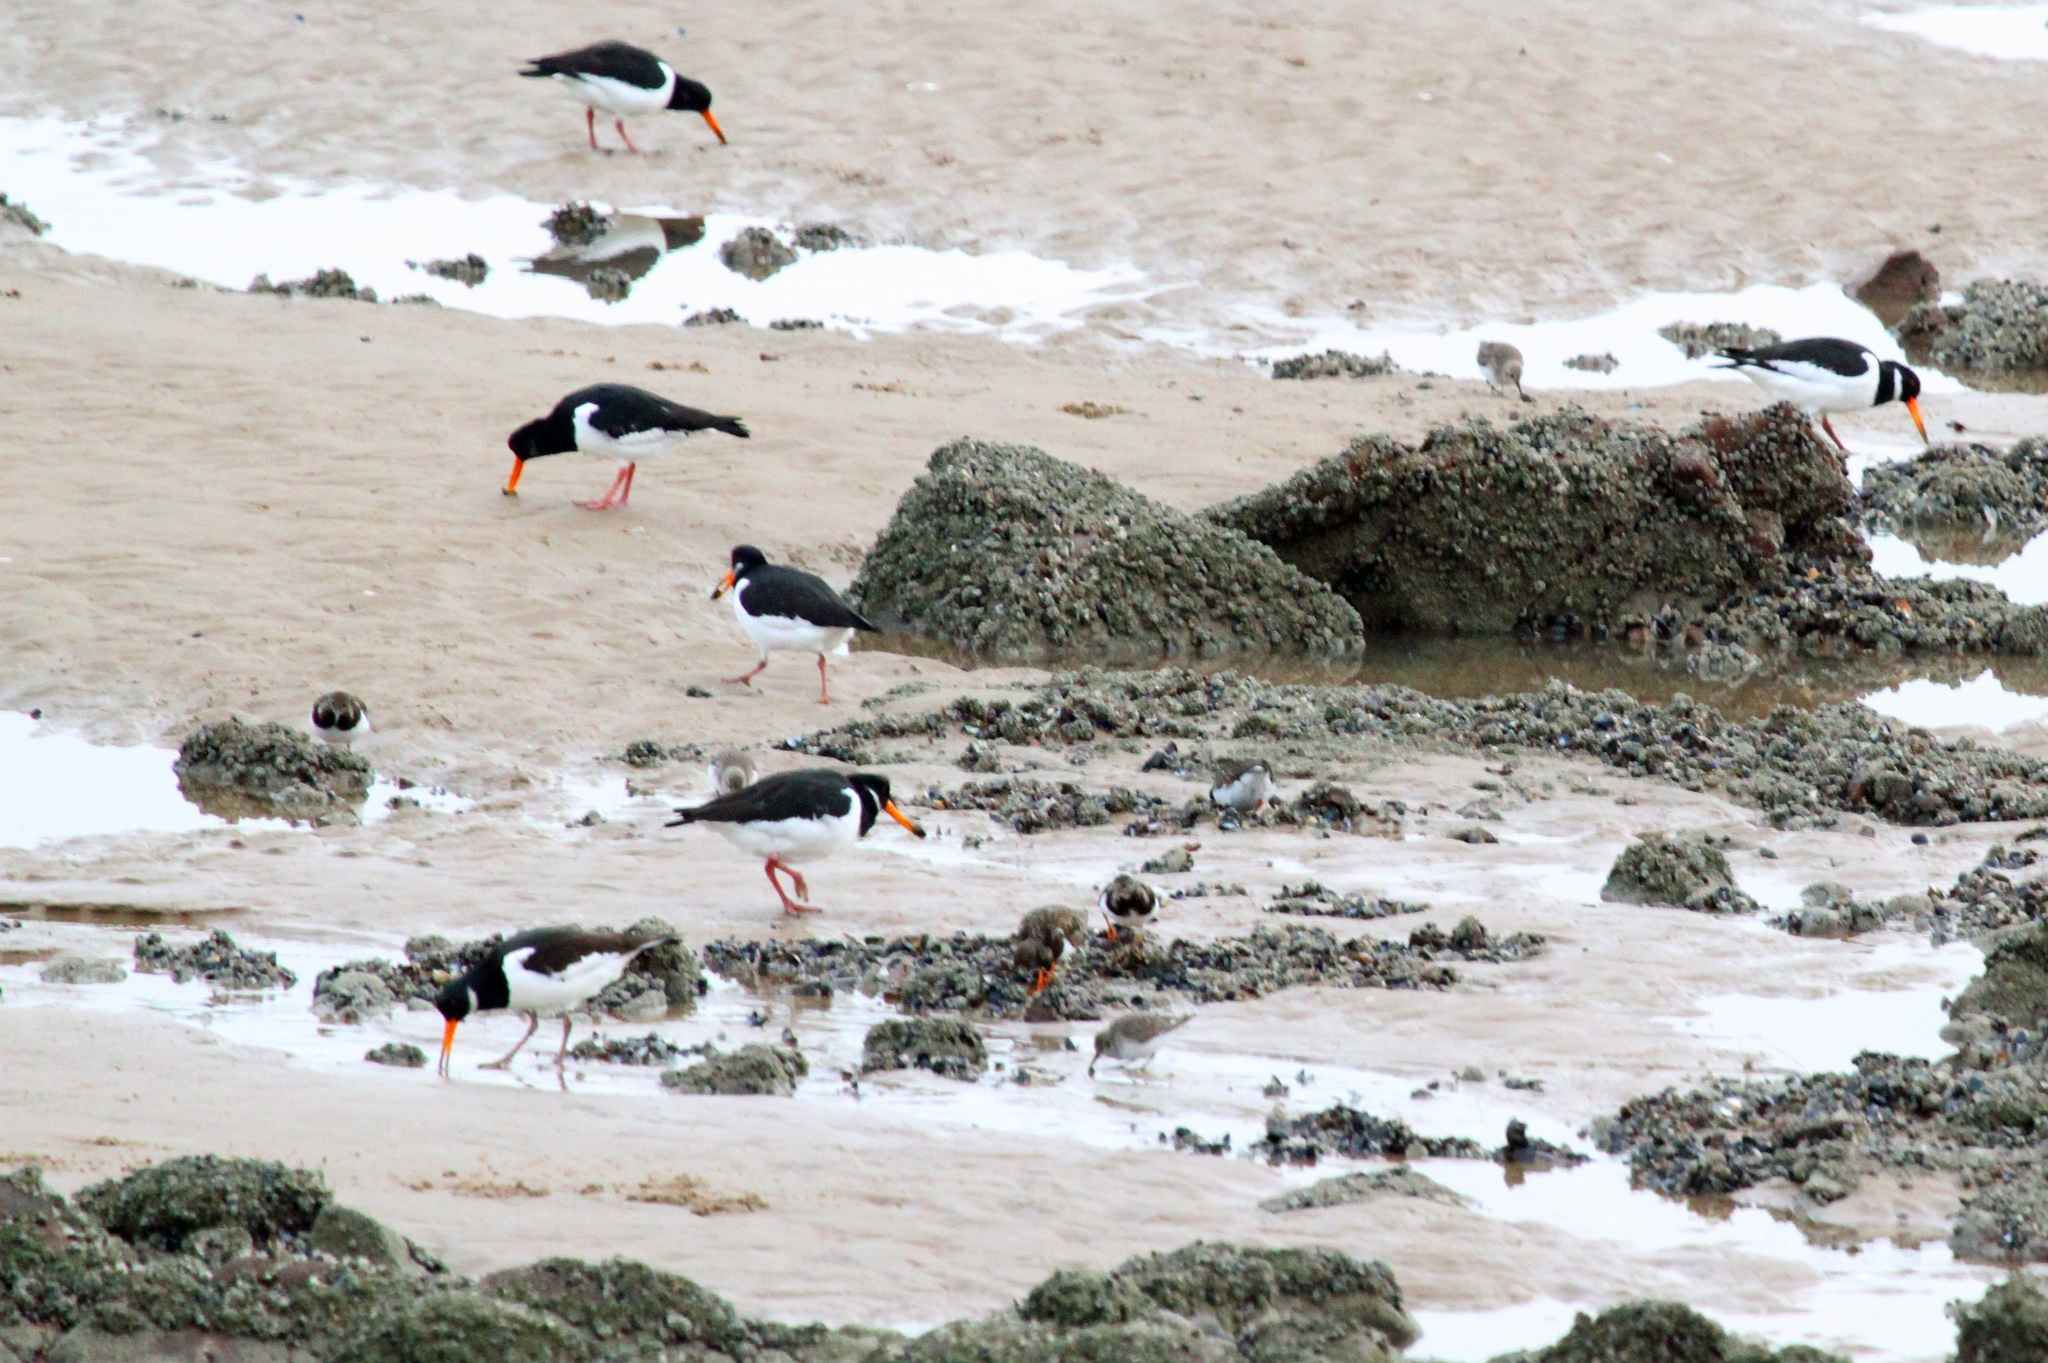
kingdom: Animalia
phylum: Chordata
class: Aves
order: Charadriiformes
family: Haematopodidae
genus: Haematopus
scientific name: Haematopus ostralegus
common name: Eurasian oystercatcher
